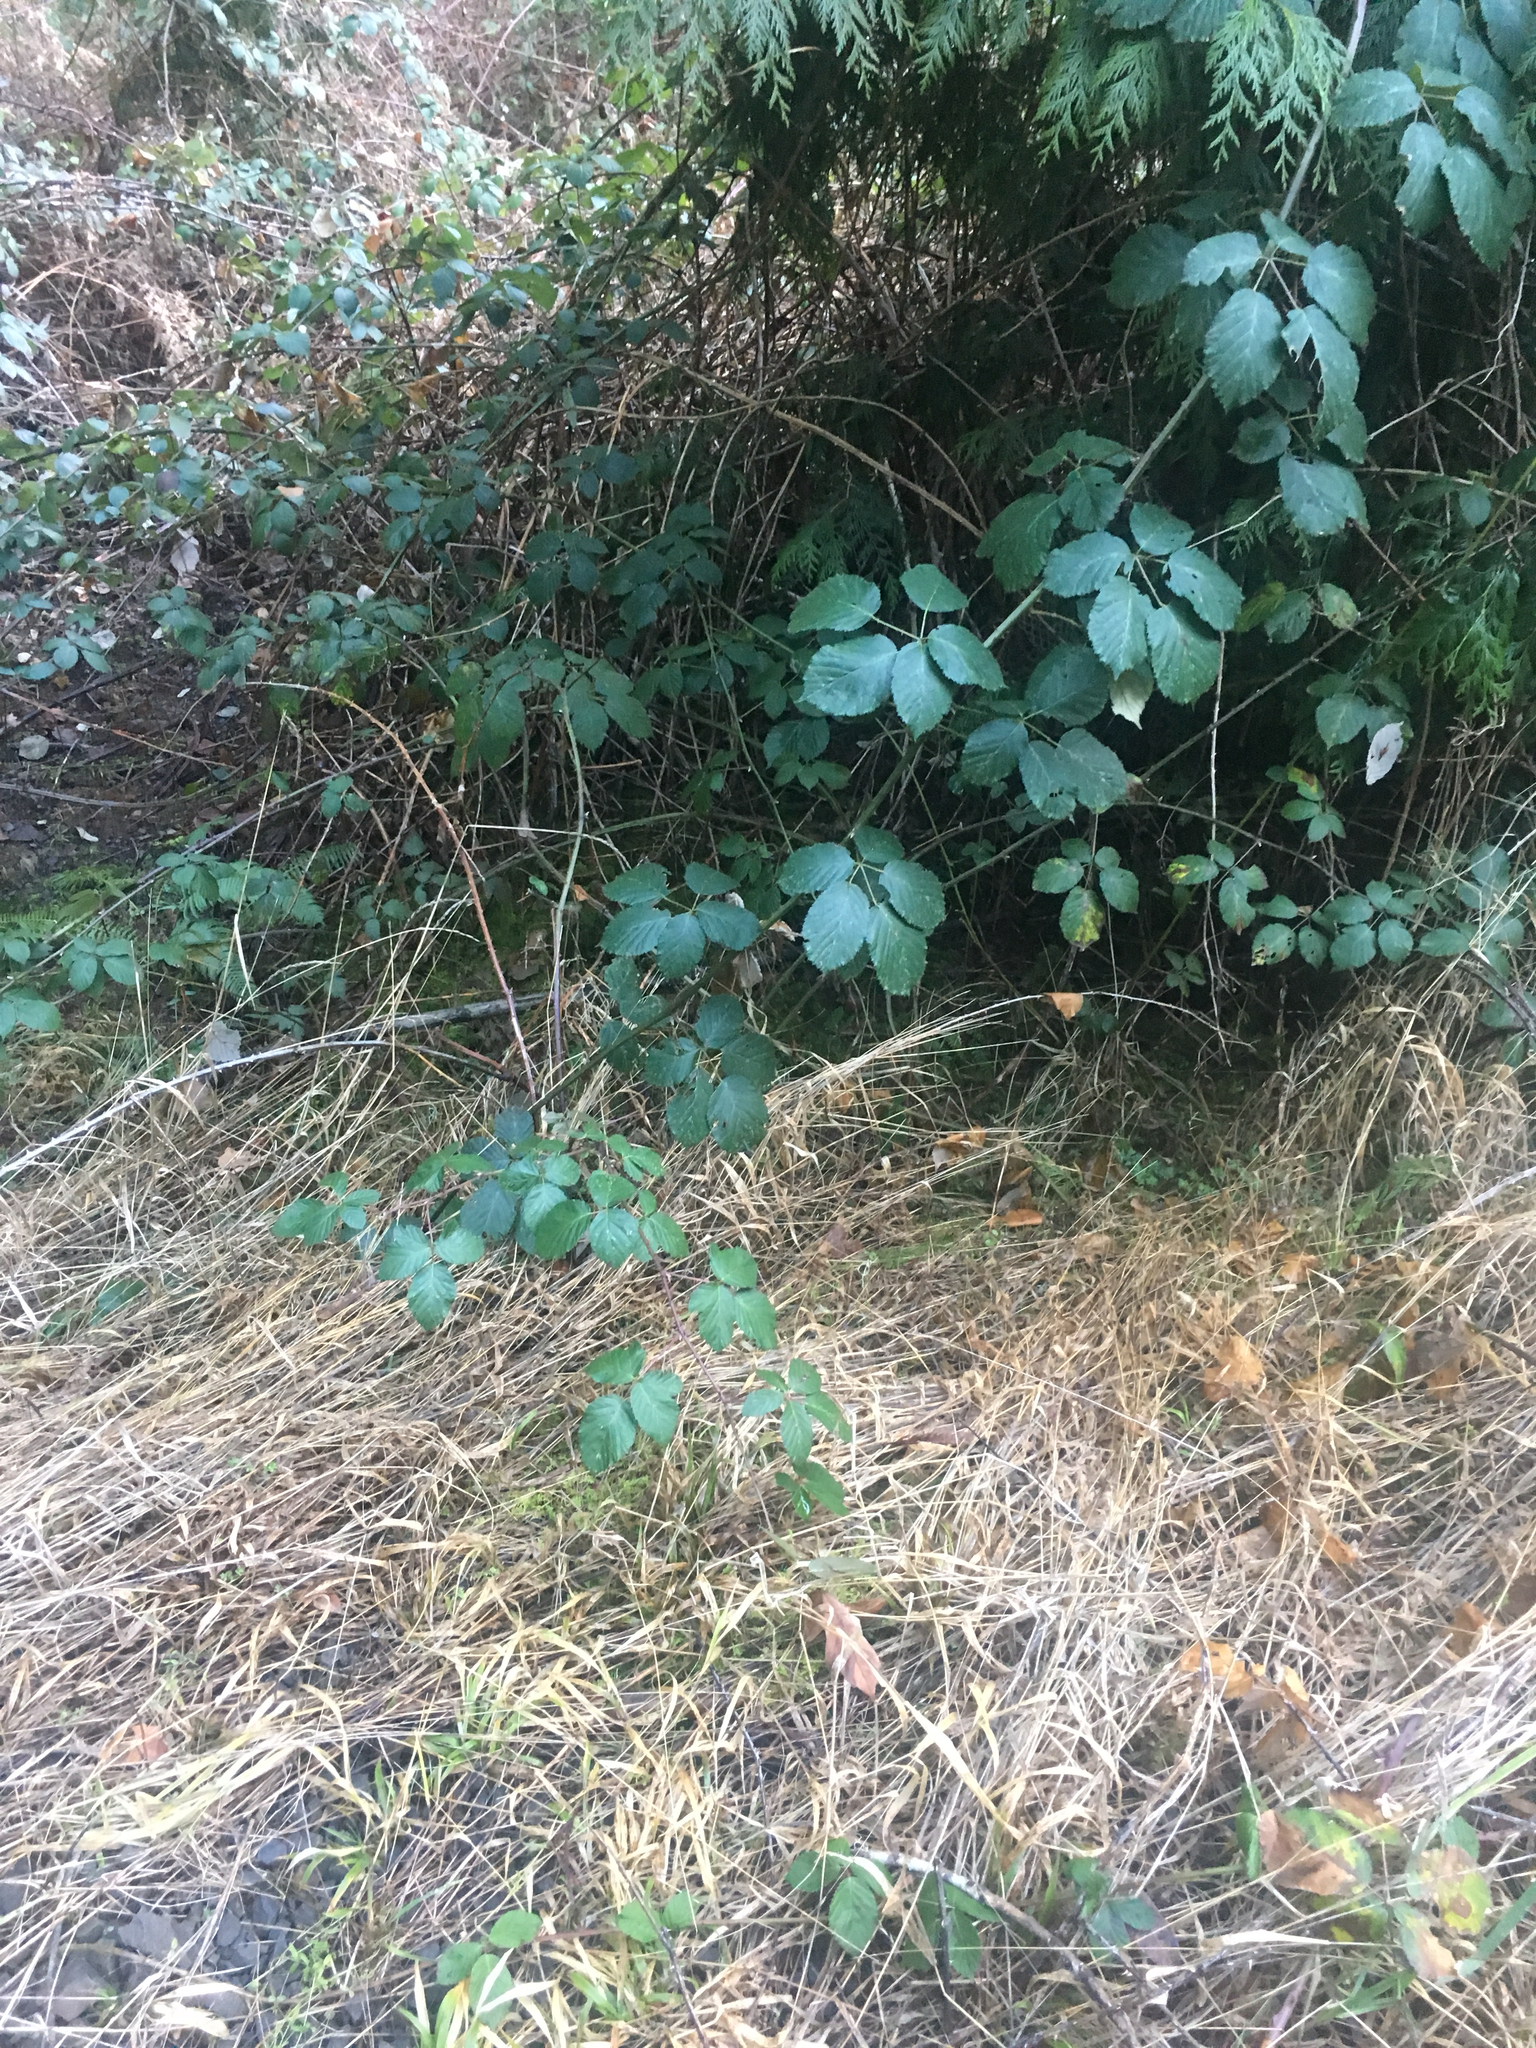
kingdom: Plantae
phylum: Tracheophyta
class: Magnoliopsida
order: Rosales
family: Rosaceae
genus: Rubus
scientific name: Rubus armeniacus
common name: Himalayan blackberry
